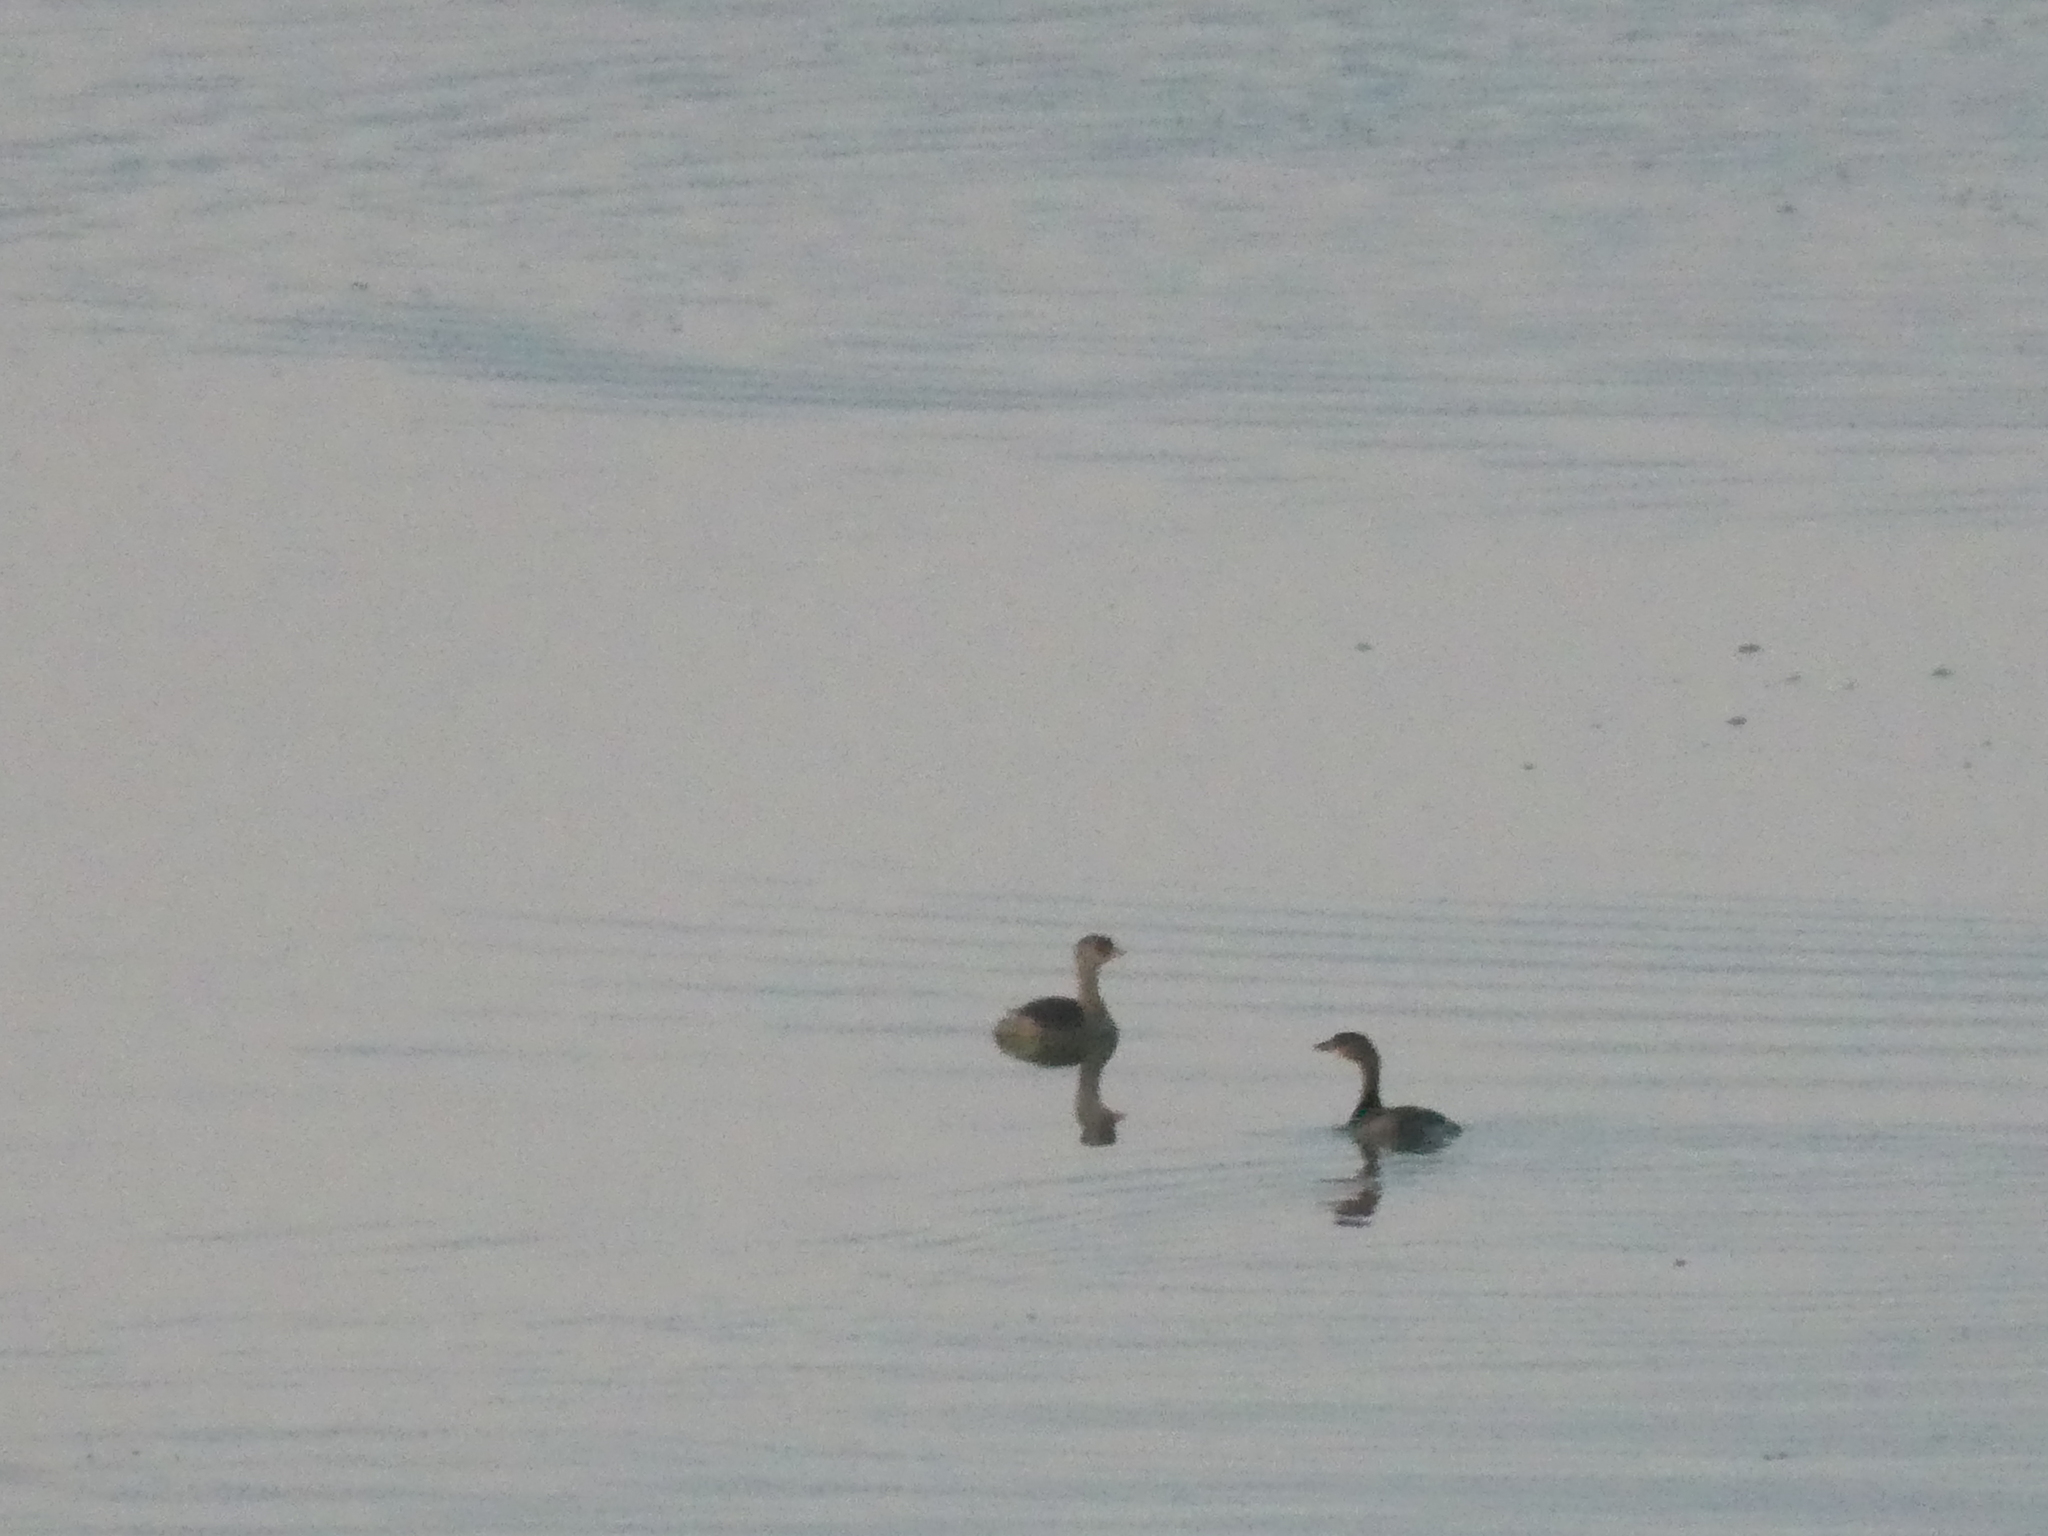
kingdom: Animalia
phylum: Chordata
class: Aves
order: Podicipediformes
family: Podicipedidae
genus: Podilymbus
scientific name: Podilymbus podiceps
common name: Pied-billed grebe
